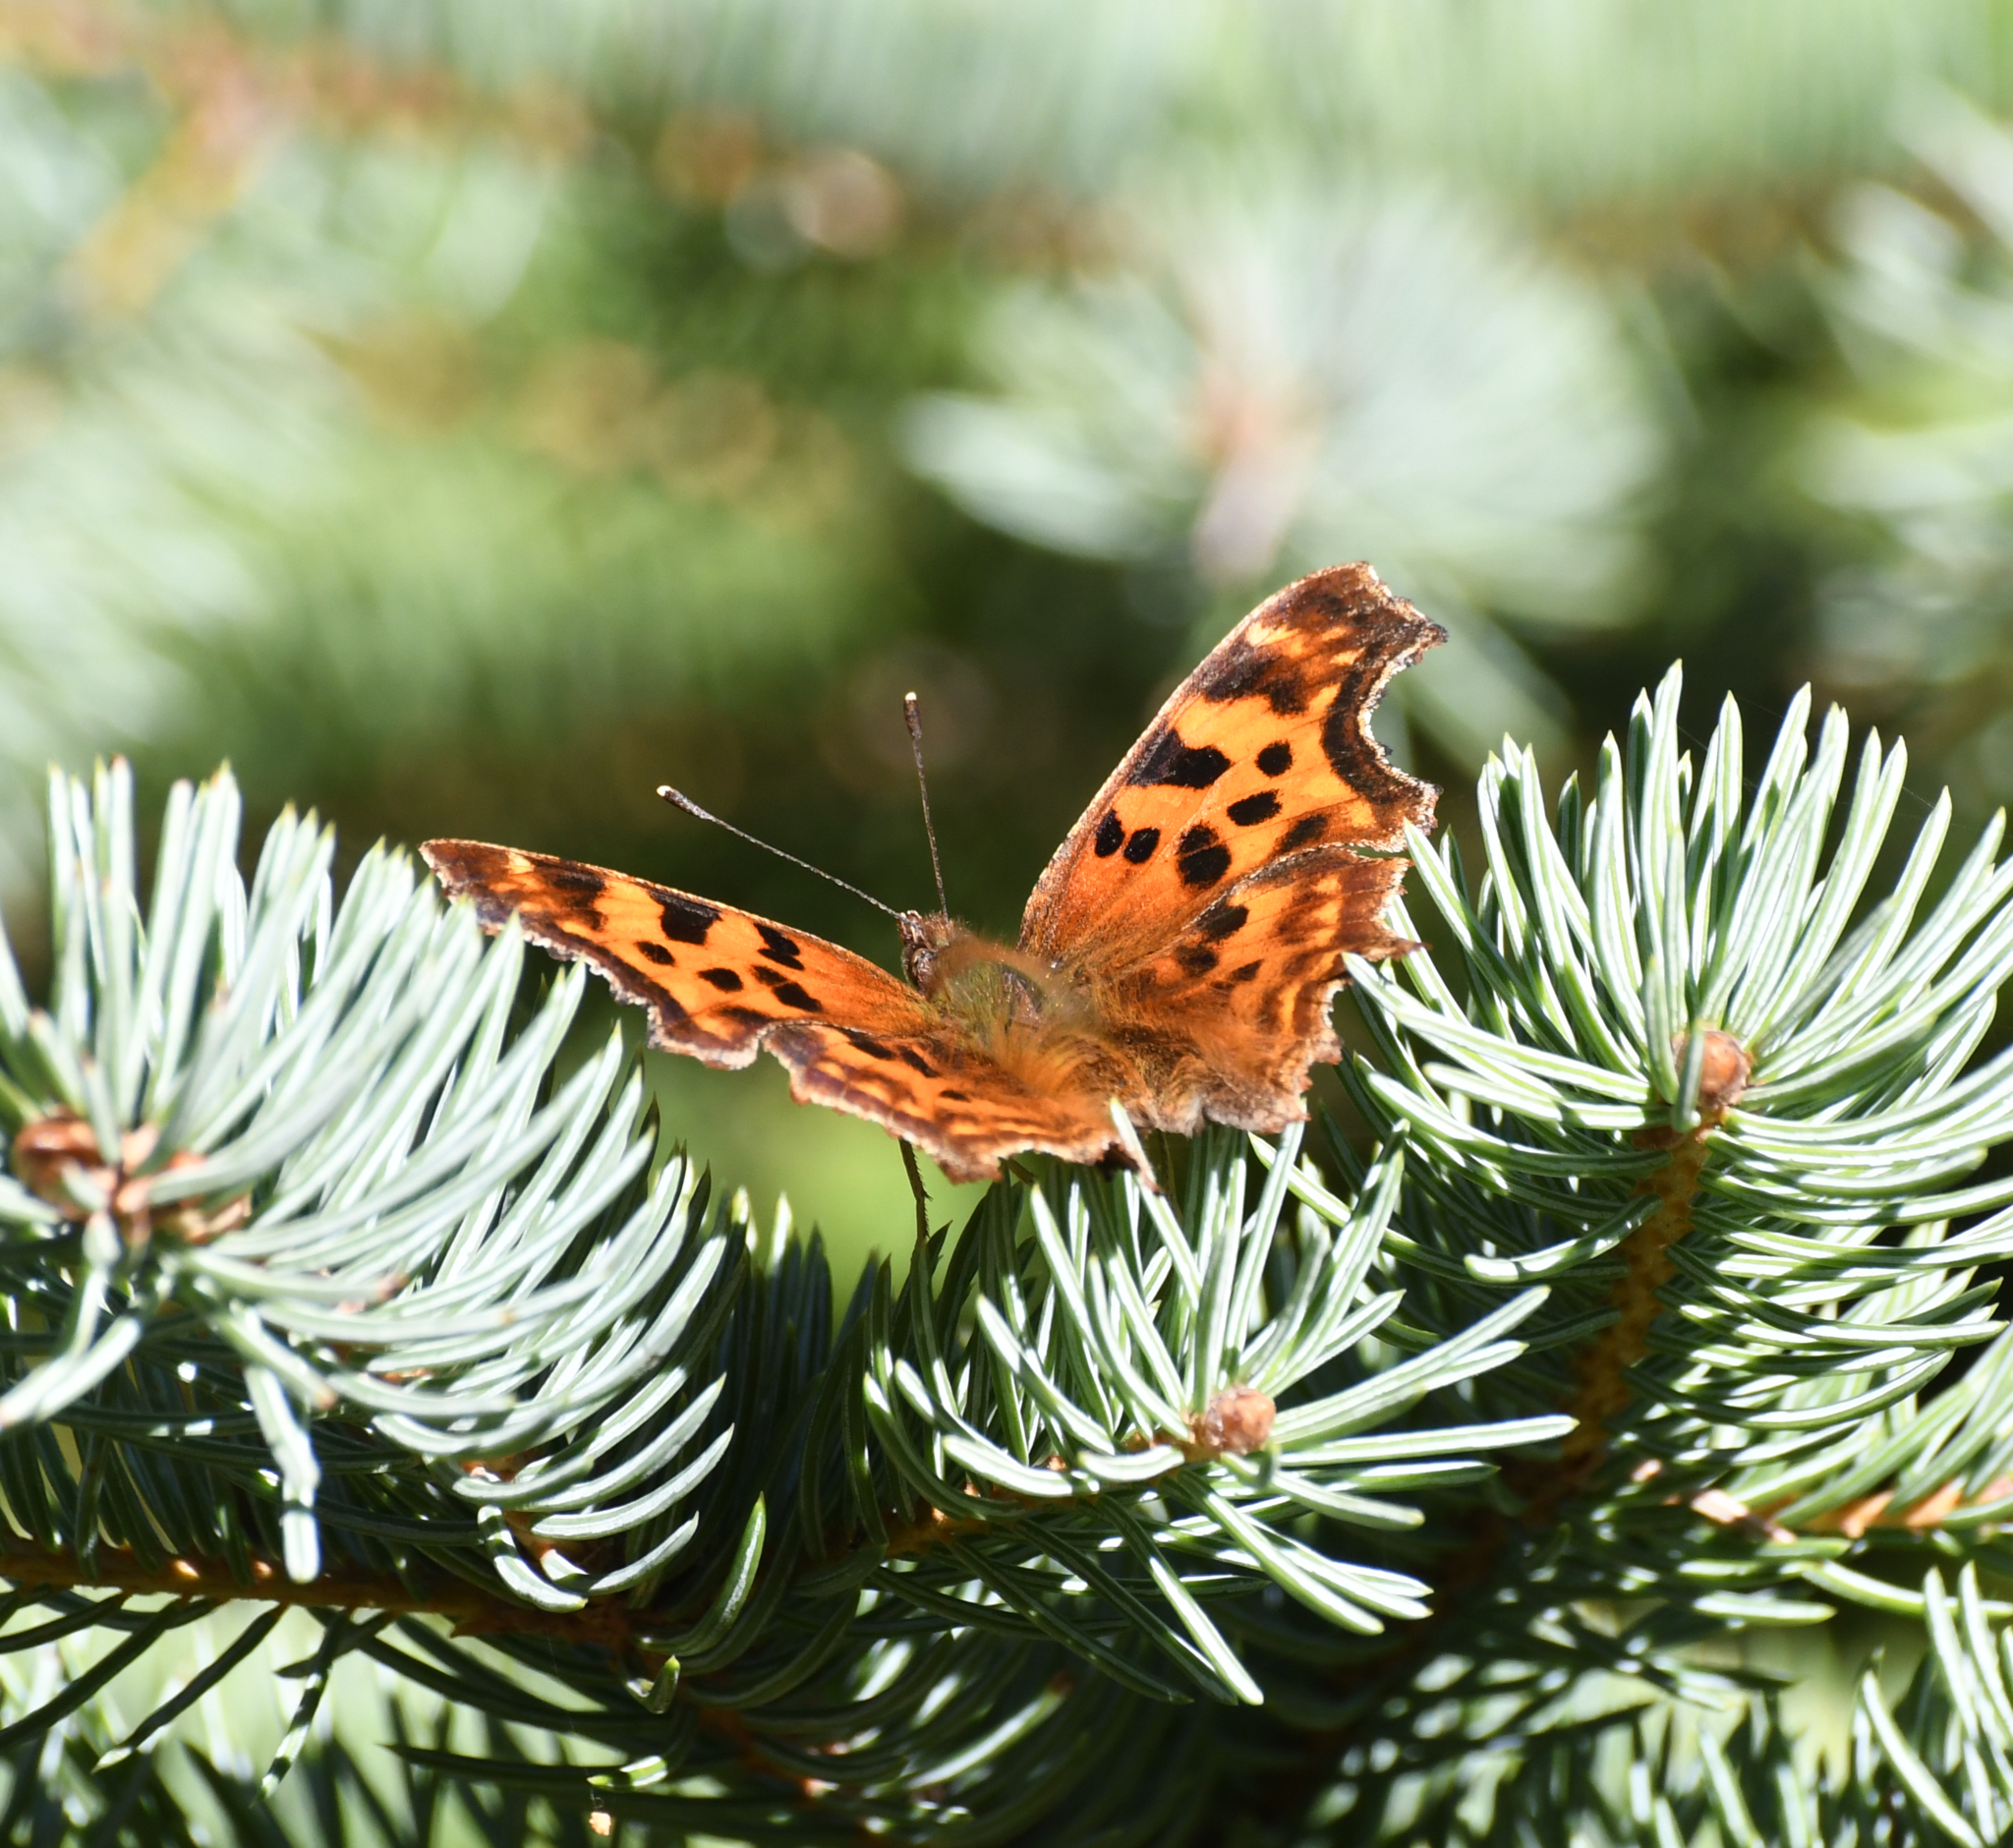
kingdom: Animalia
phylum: Arthropoda
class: Insecta
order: Lepidoptera
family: Nymphalidae
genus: Polygonia
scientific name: Polygonia satyrus
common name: Satyr angle wing
